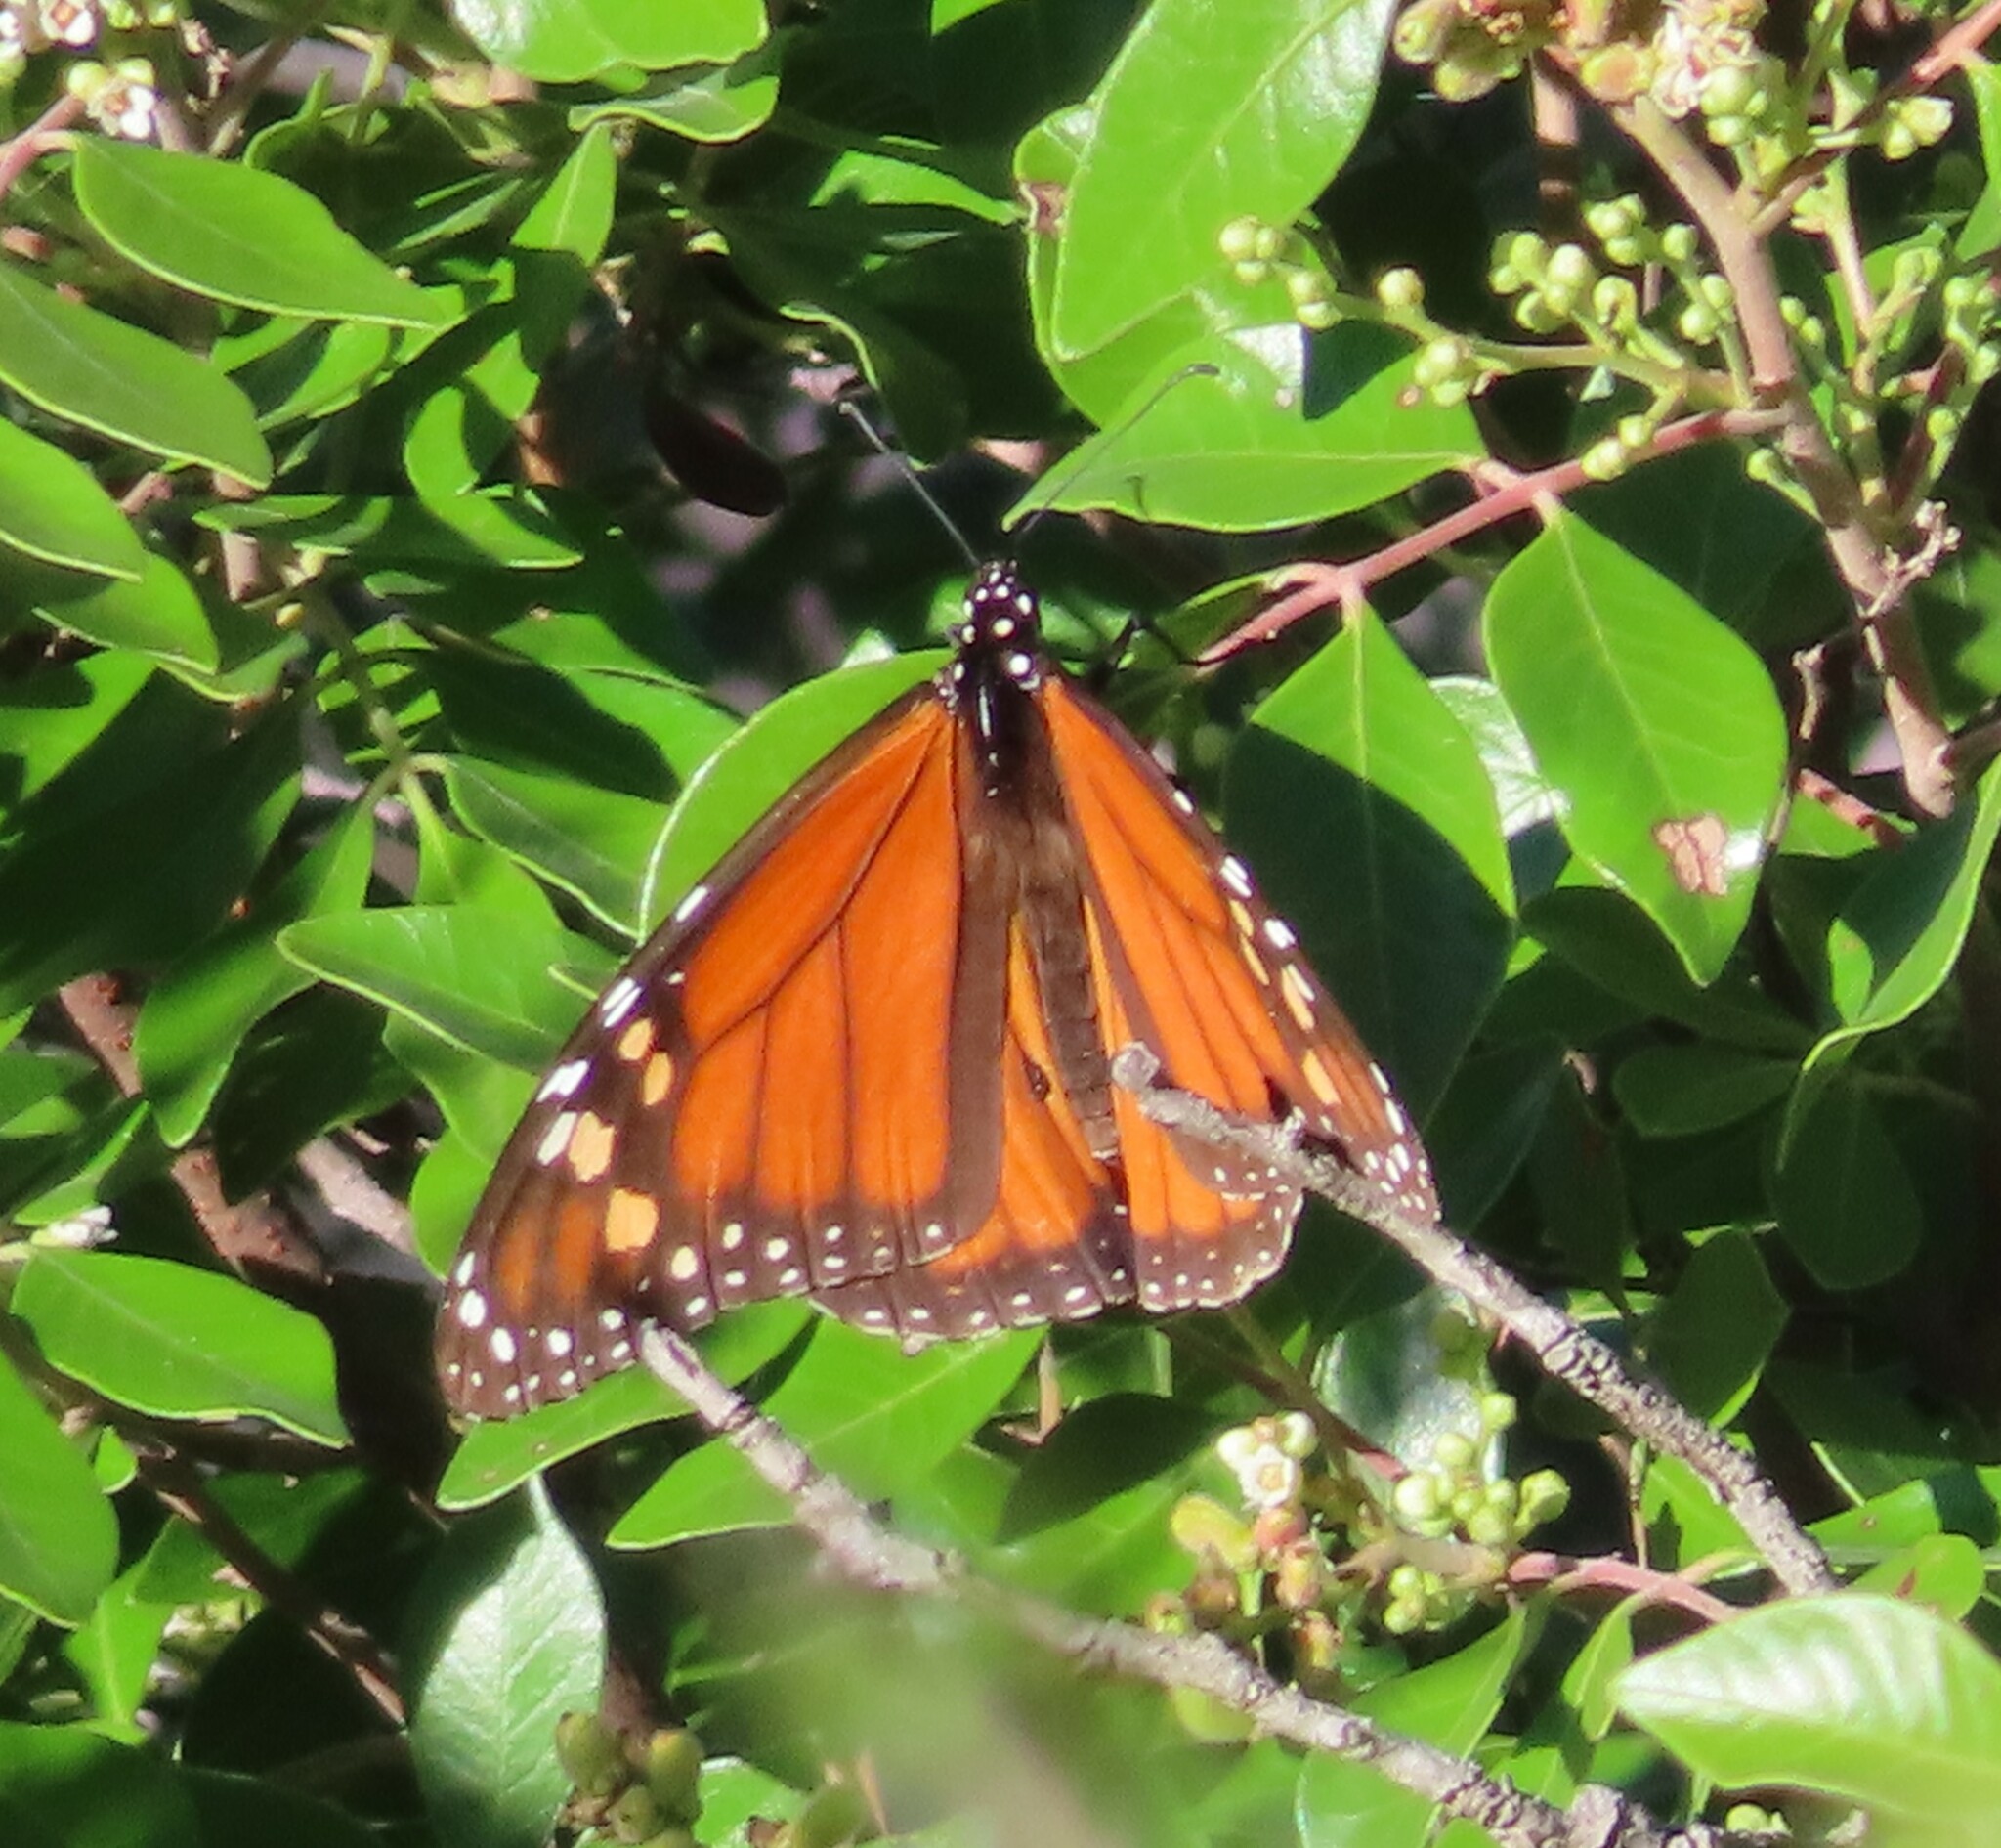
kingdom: Animalia
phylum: Arthropoda
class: Insecta
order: Lepidoptera
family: Nymphalidae
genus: Danaus
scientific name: Danaus plexippus
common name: Monarch
